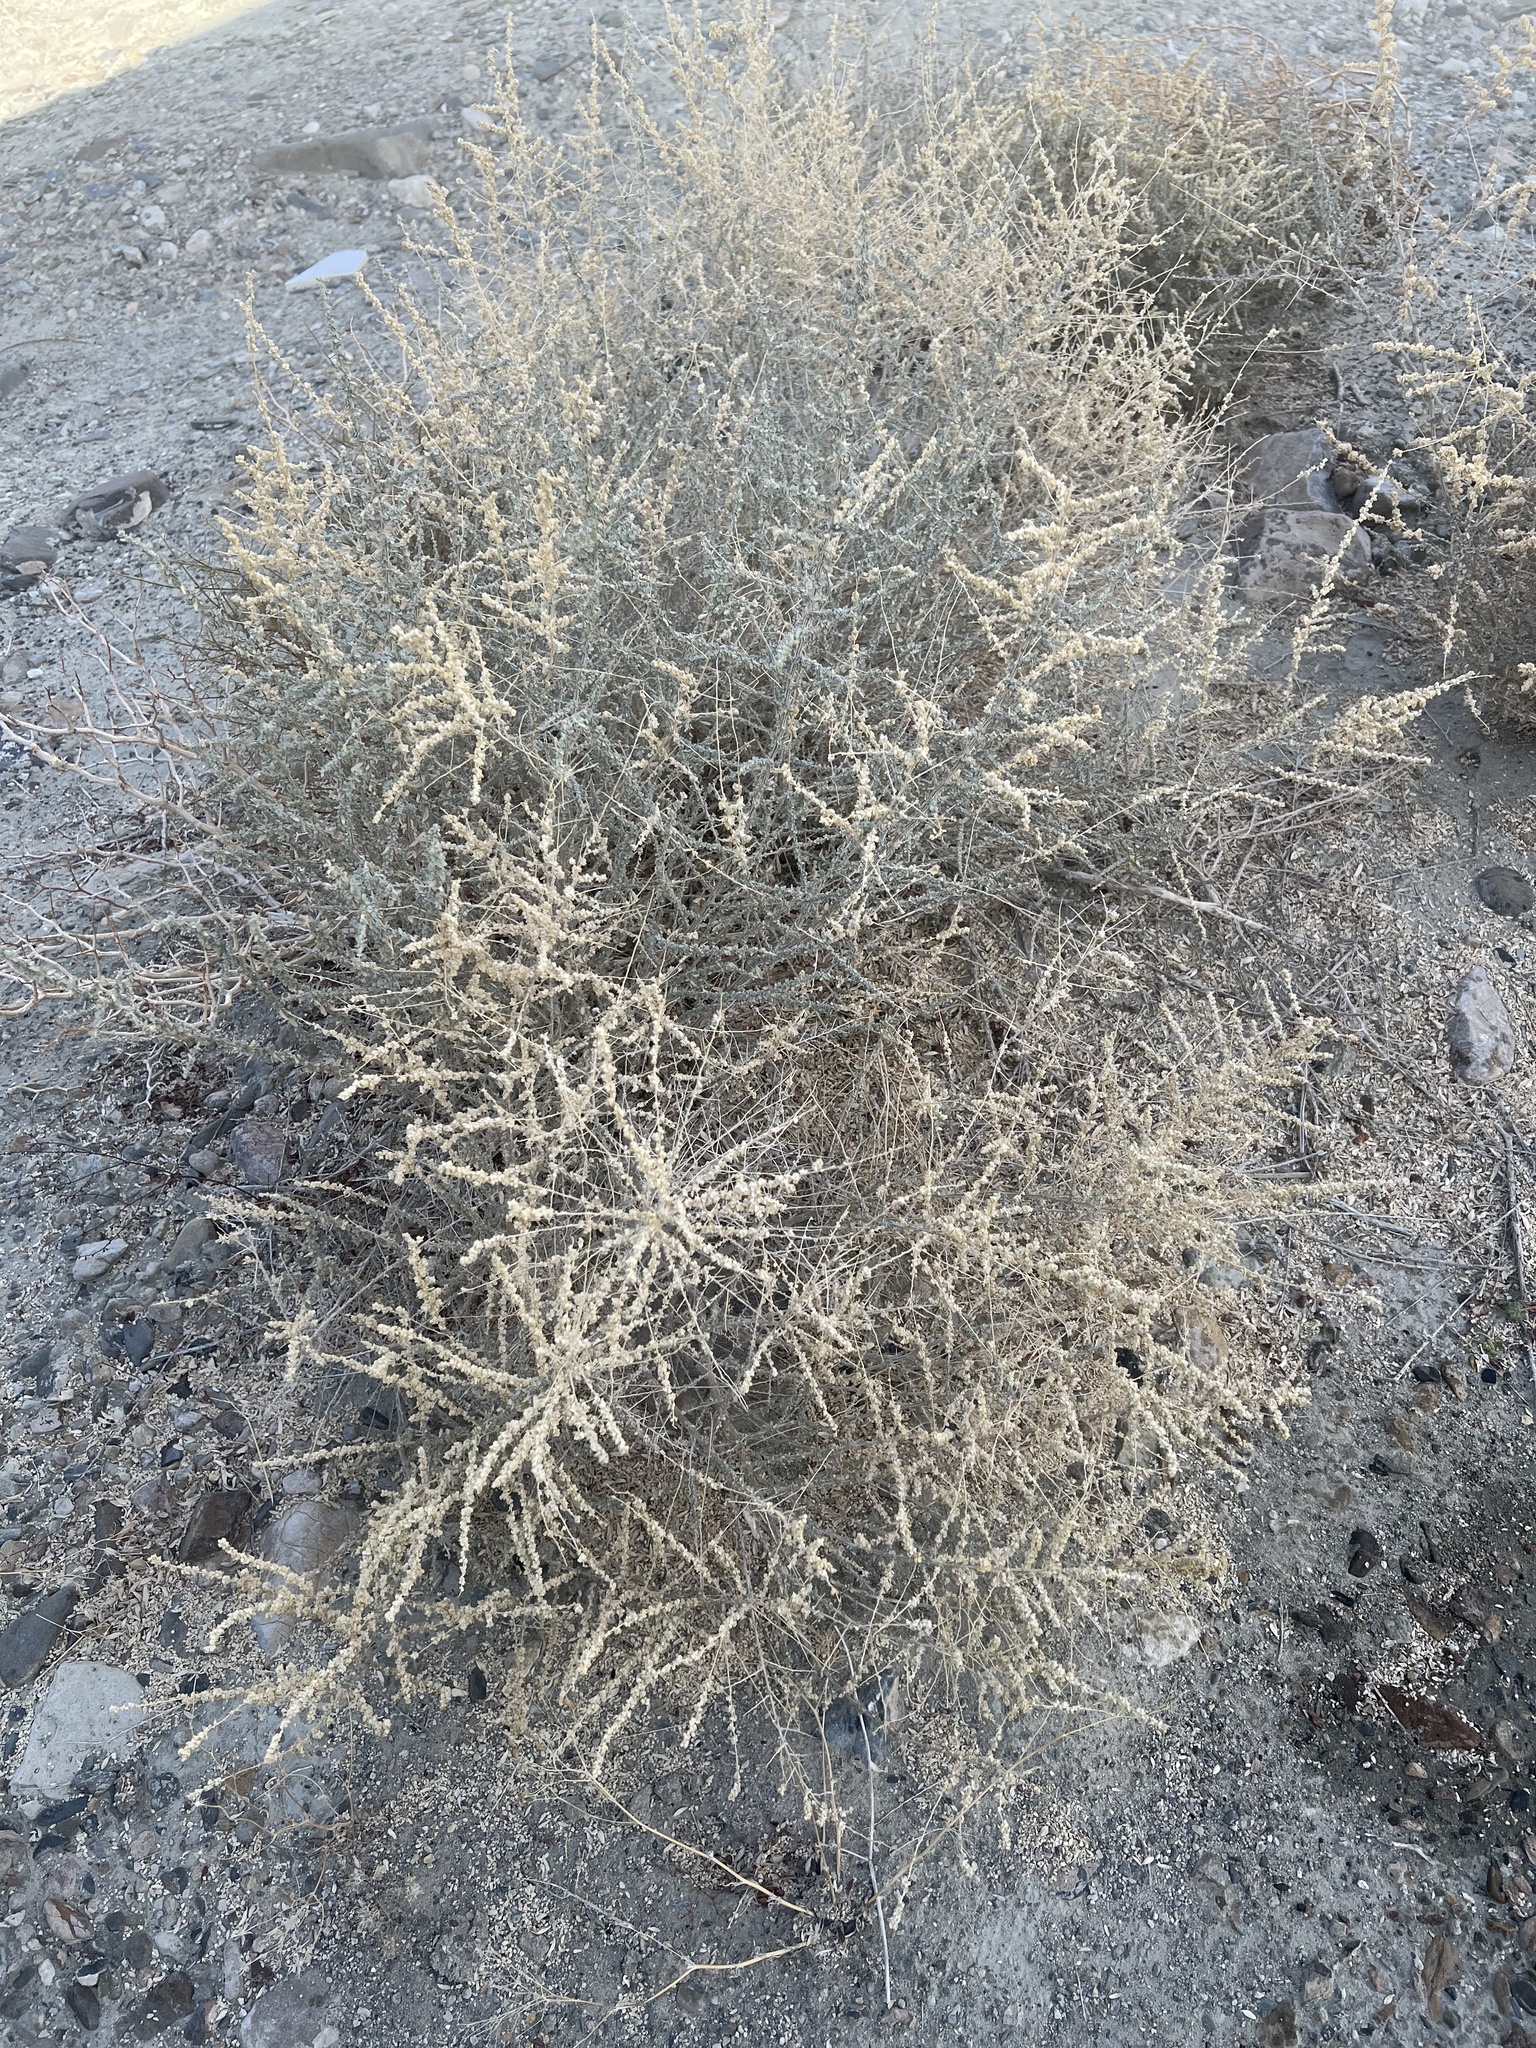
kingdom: Plantae
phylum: Tracheophyta
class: Magnoliopsida
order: Caryophyllales
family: Amaranthaceae
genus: Atriplex
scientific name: Atriplex polycarpa
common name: Desert saltbush
